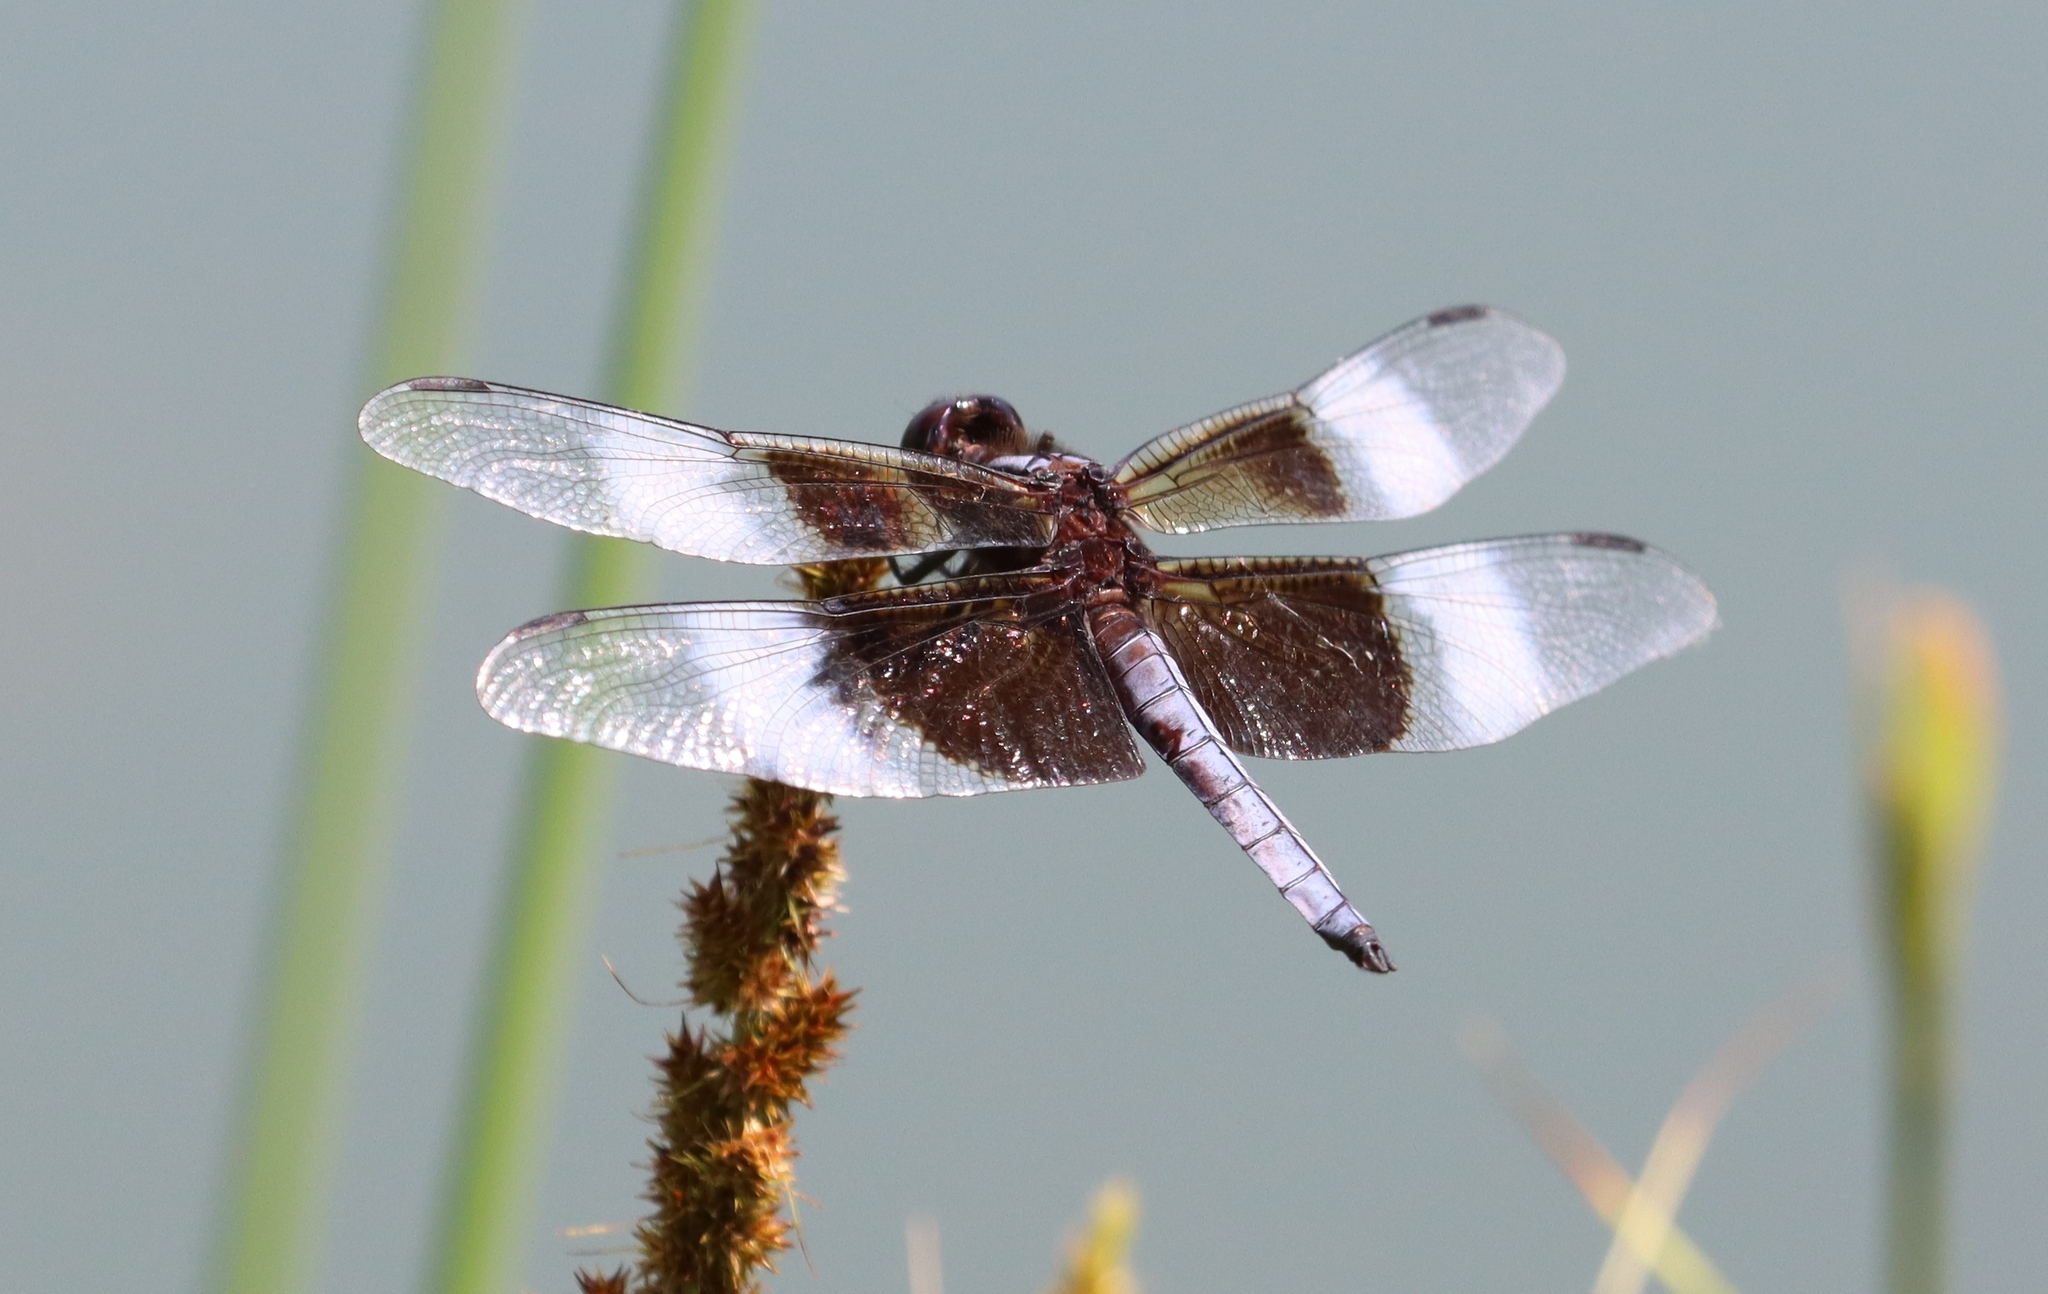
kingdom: Animalia
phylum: Arthropoda
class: Insecta
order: Odonata
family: Libellulidae
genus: Libellula
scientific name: Libellula luctuosa
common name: Widow skimmer
